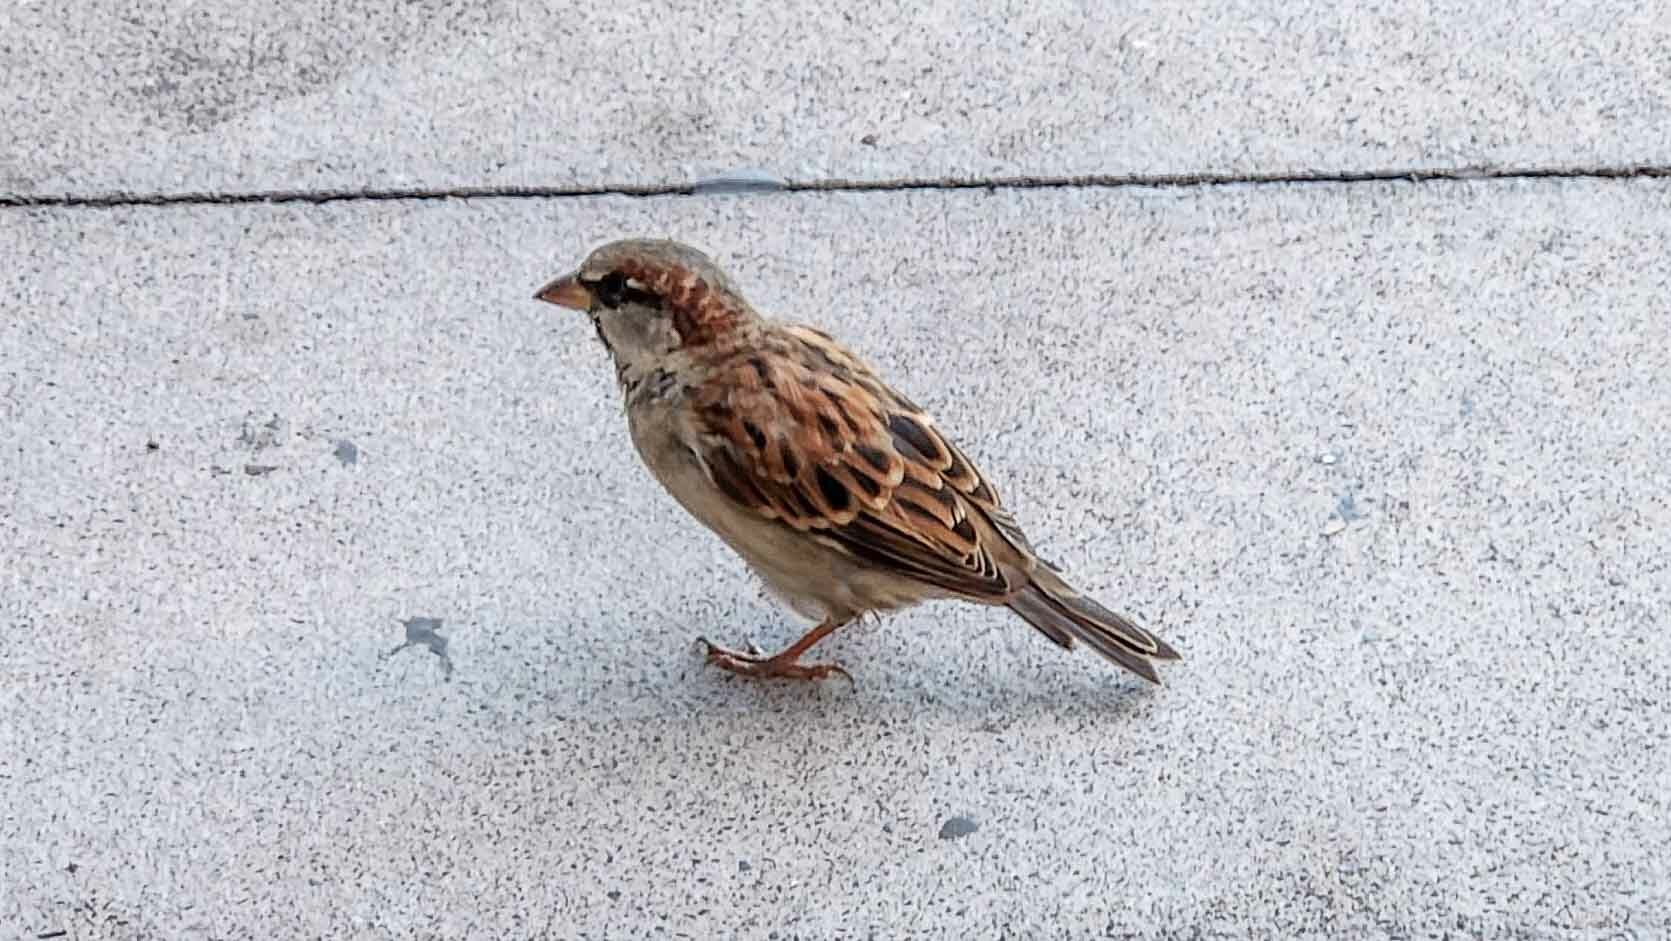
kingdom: Animalia
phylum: Chordata
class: Aves
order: Passeriformes
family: Passeridae
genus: Passer
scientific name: Passer domesticus
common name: House sparrow
